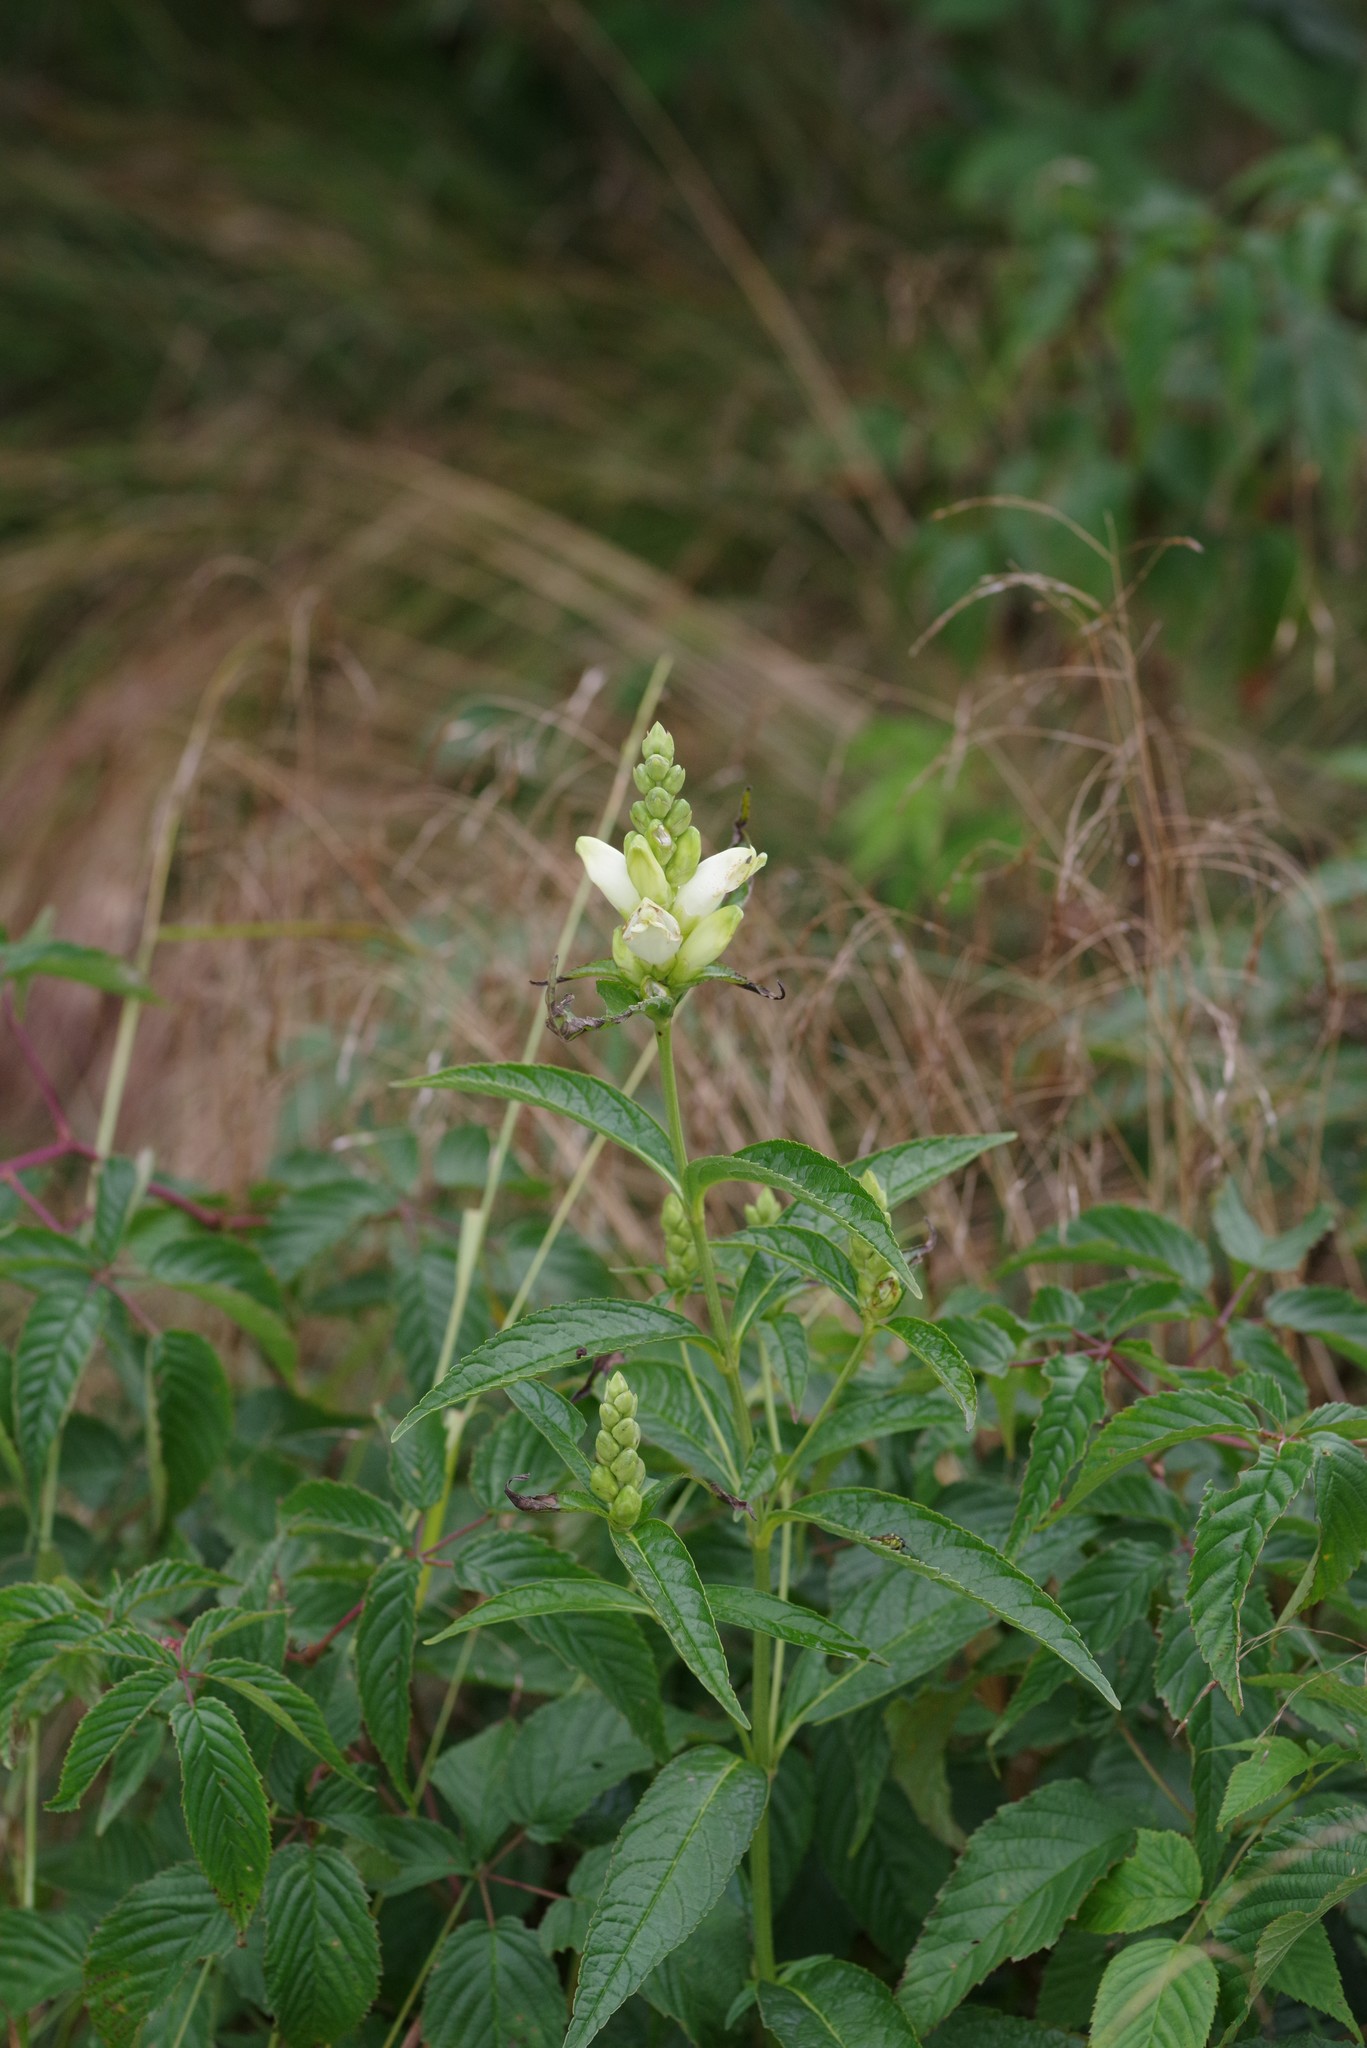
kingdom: Plantae
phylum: Tracheophyta
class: Magnoliopsida
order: Lamiales
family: Plantaginaceae
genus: Chelone
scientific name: Chelone glabra
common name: Snakehead
